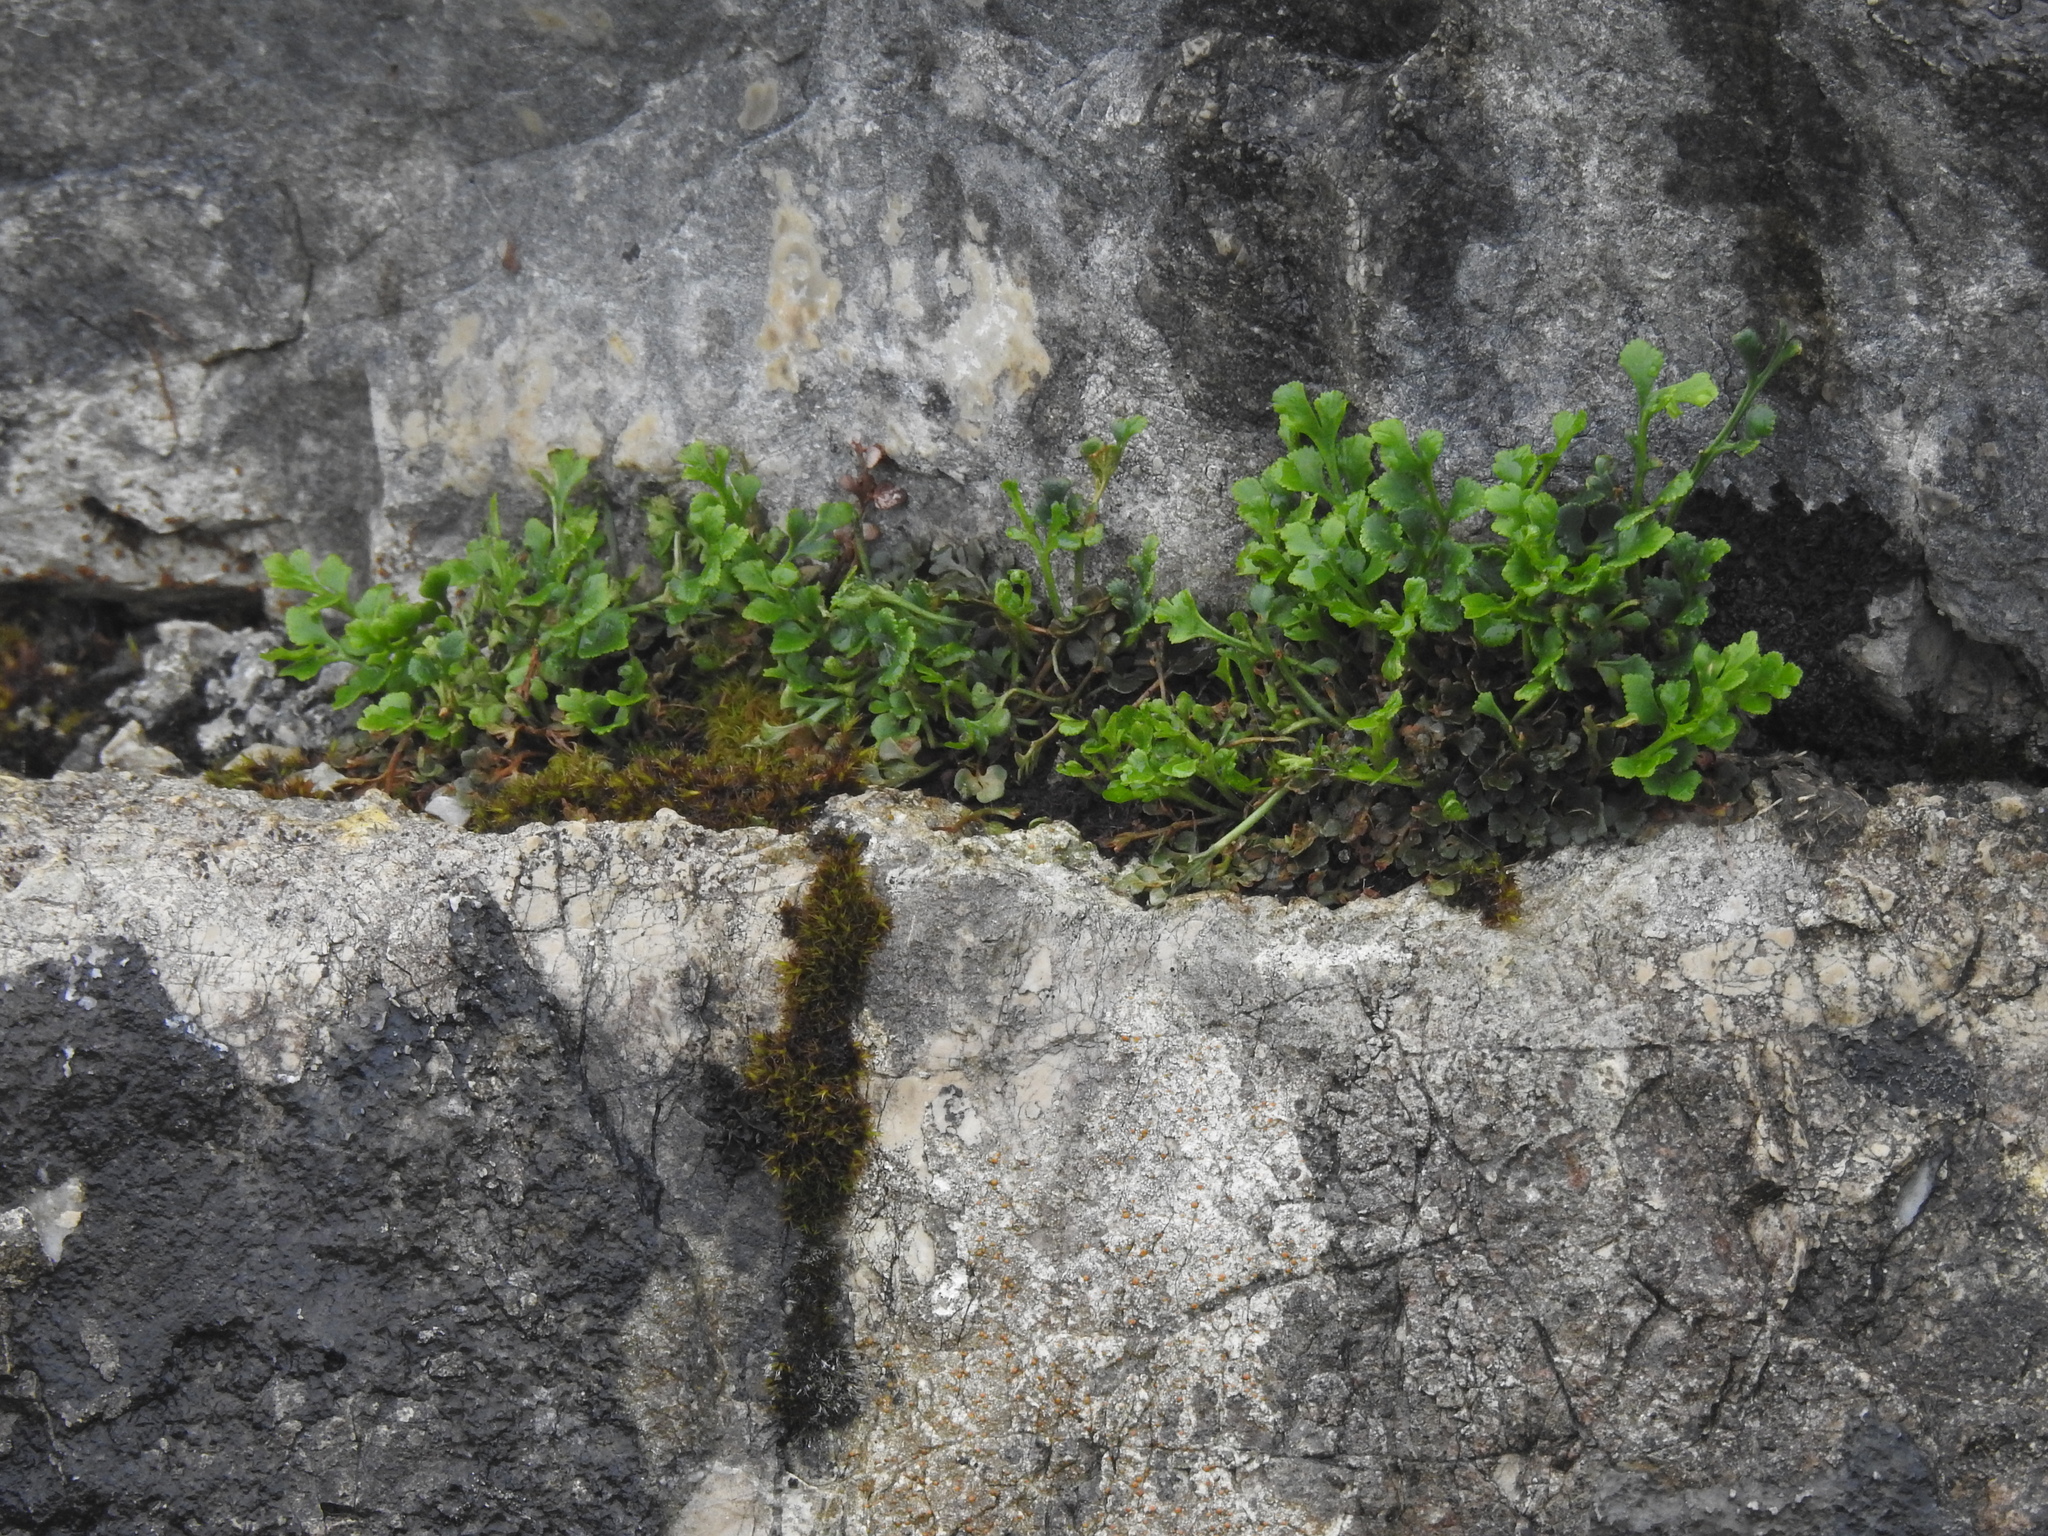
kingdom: Plantae
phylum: Tracheophyta
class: Polypodiopsida
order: Polypodiales
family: Aspleniaceae
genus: Asplenium
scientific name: Asplenium ruta-muraria
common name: Wall-rue
